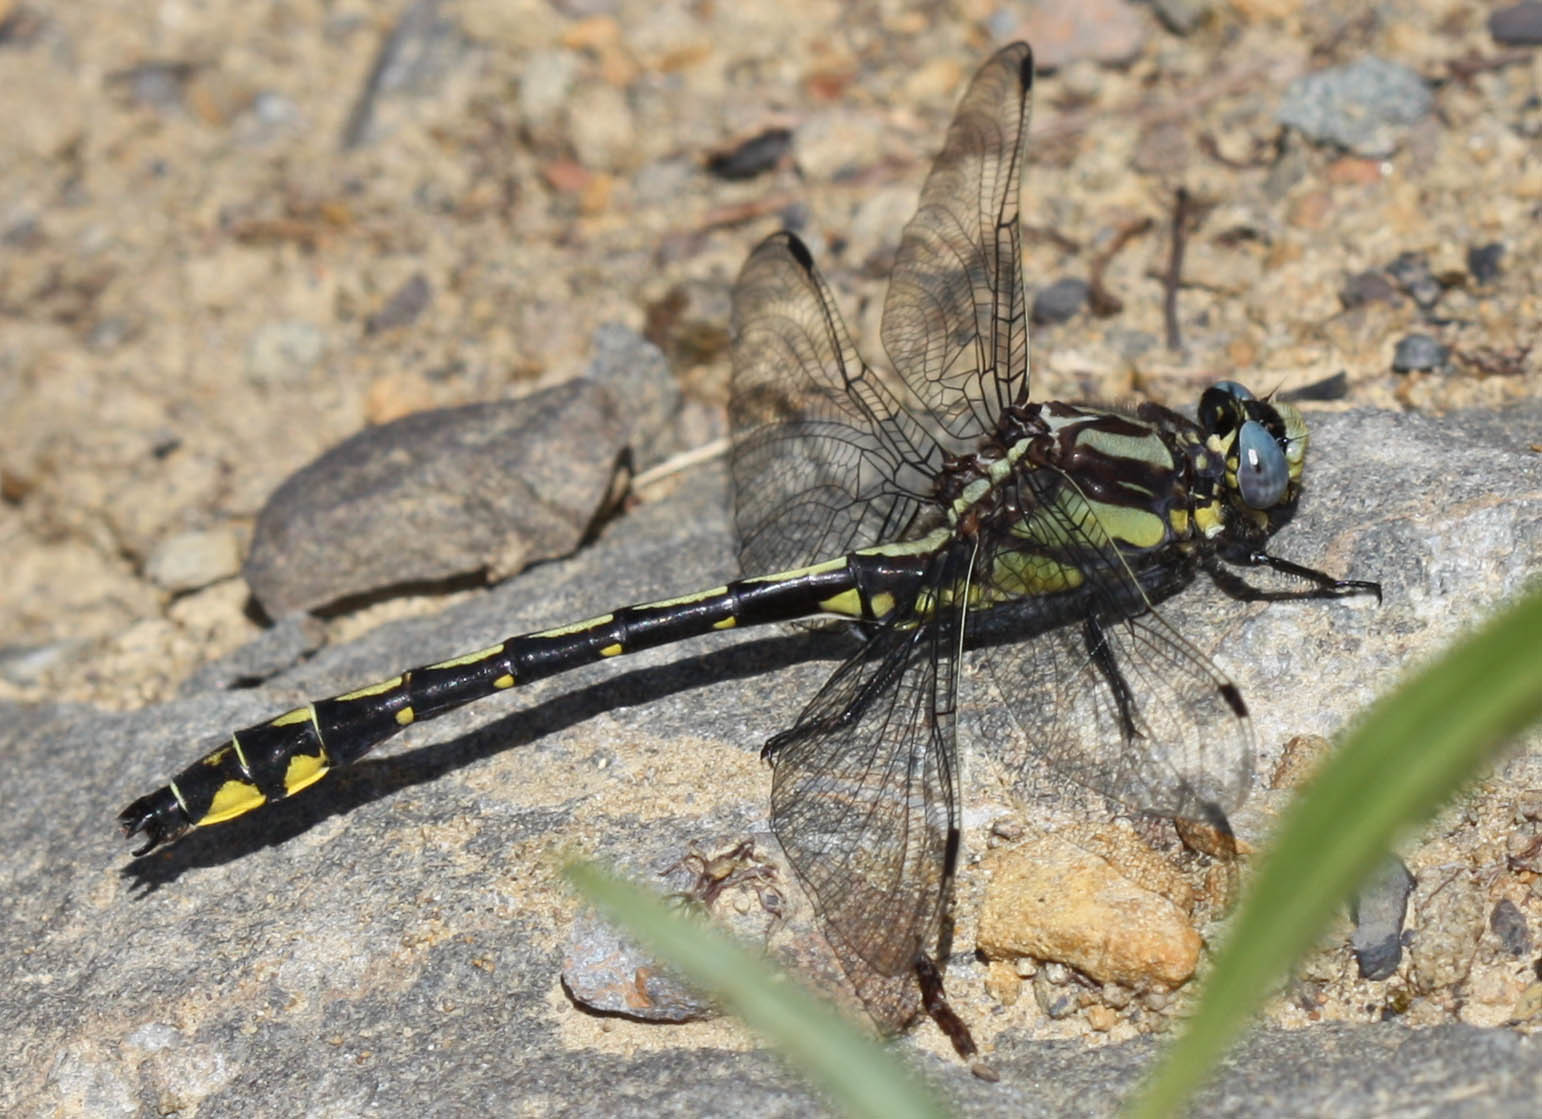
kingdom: Animalia
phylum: Arthropoda
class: Insecta
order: Odonata
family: Gomphidae
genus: Phanogomphus
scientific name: Phanogomphus kurilis
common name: Pacific clubtail
